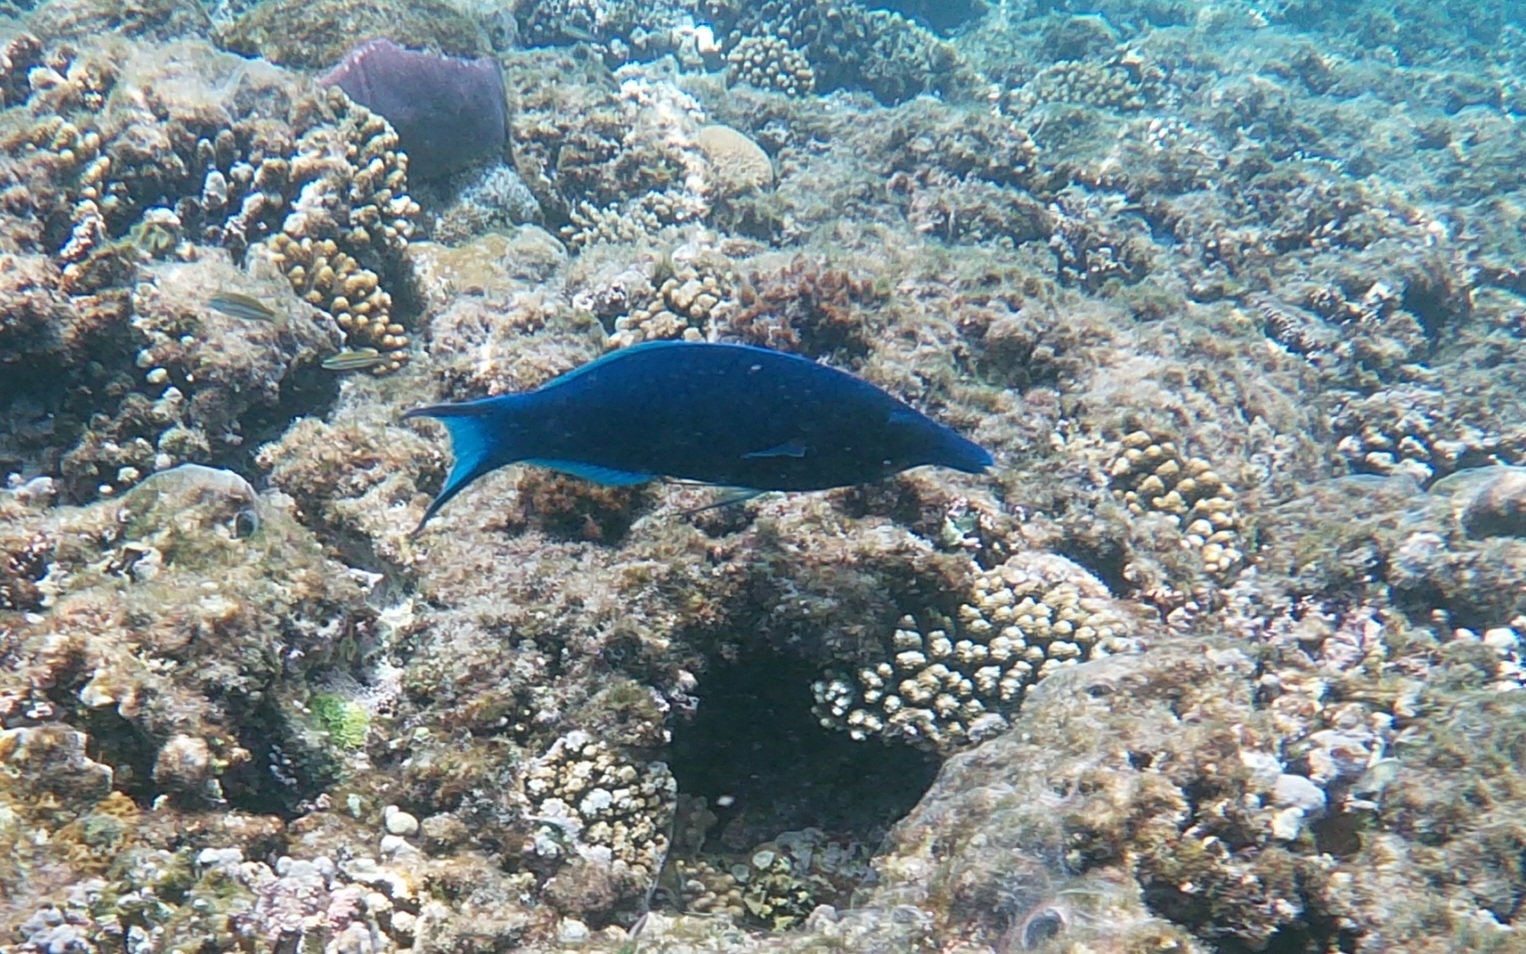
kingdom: Animalia
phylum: Chordata
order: Perciformes
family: Labridae
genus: Gomphosus
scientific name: Gomphosus klunzingeri
